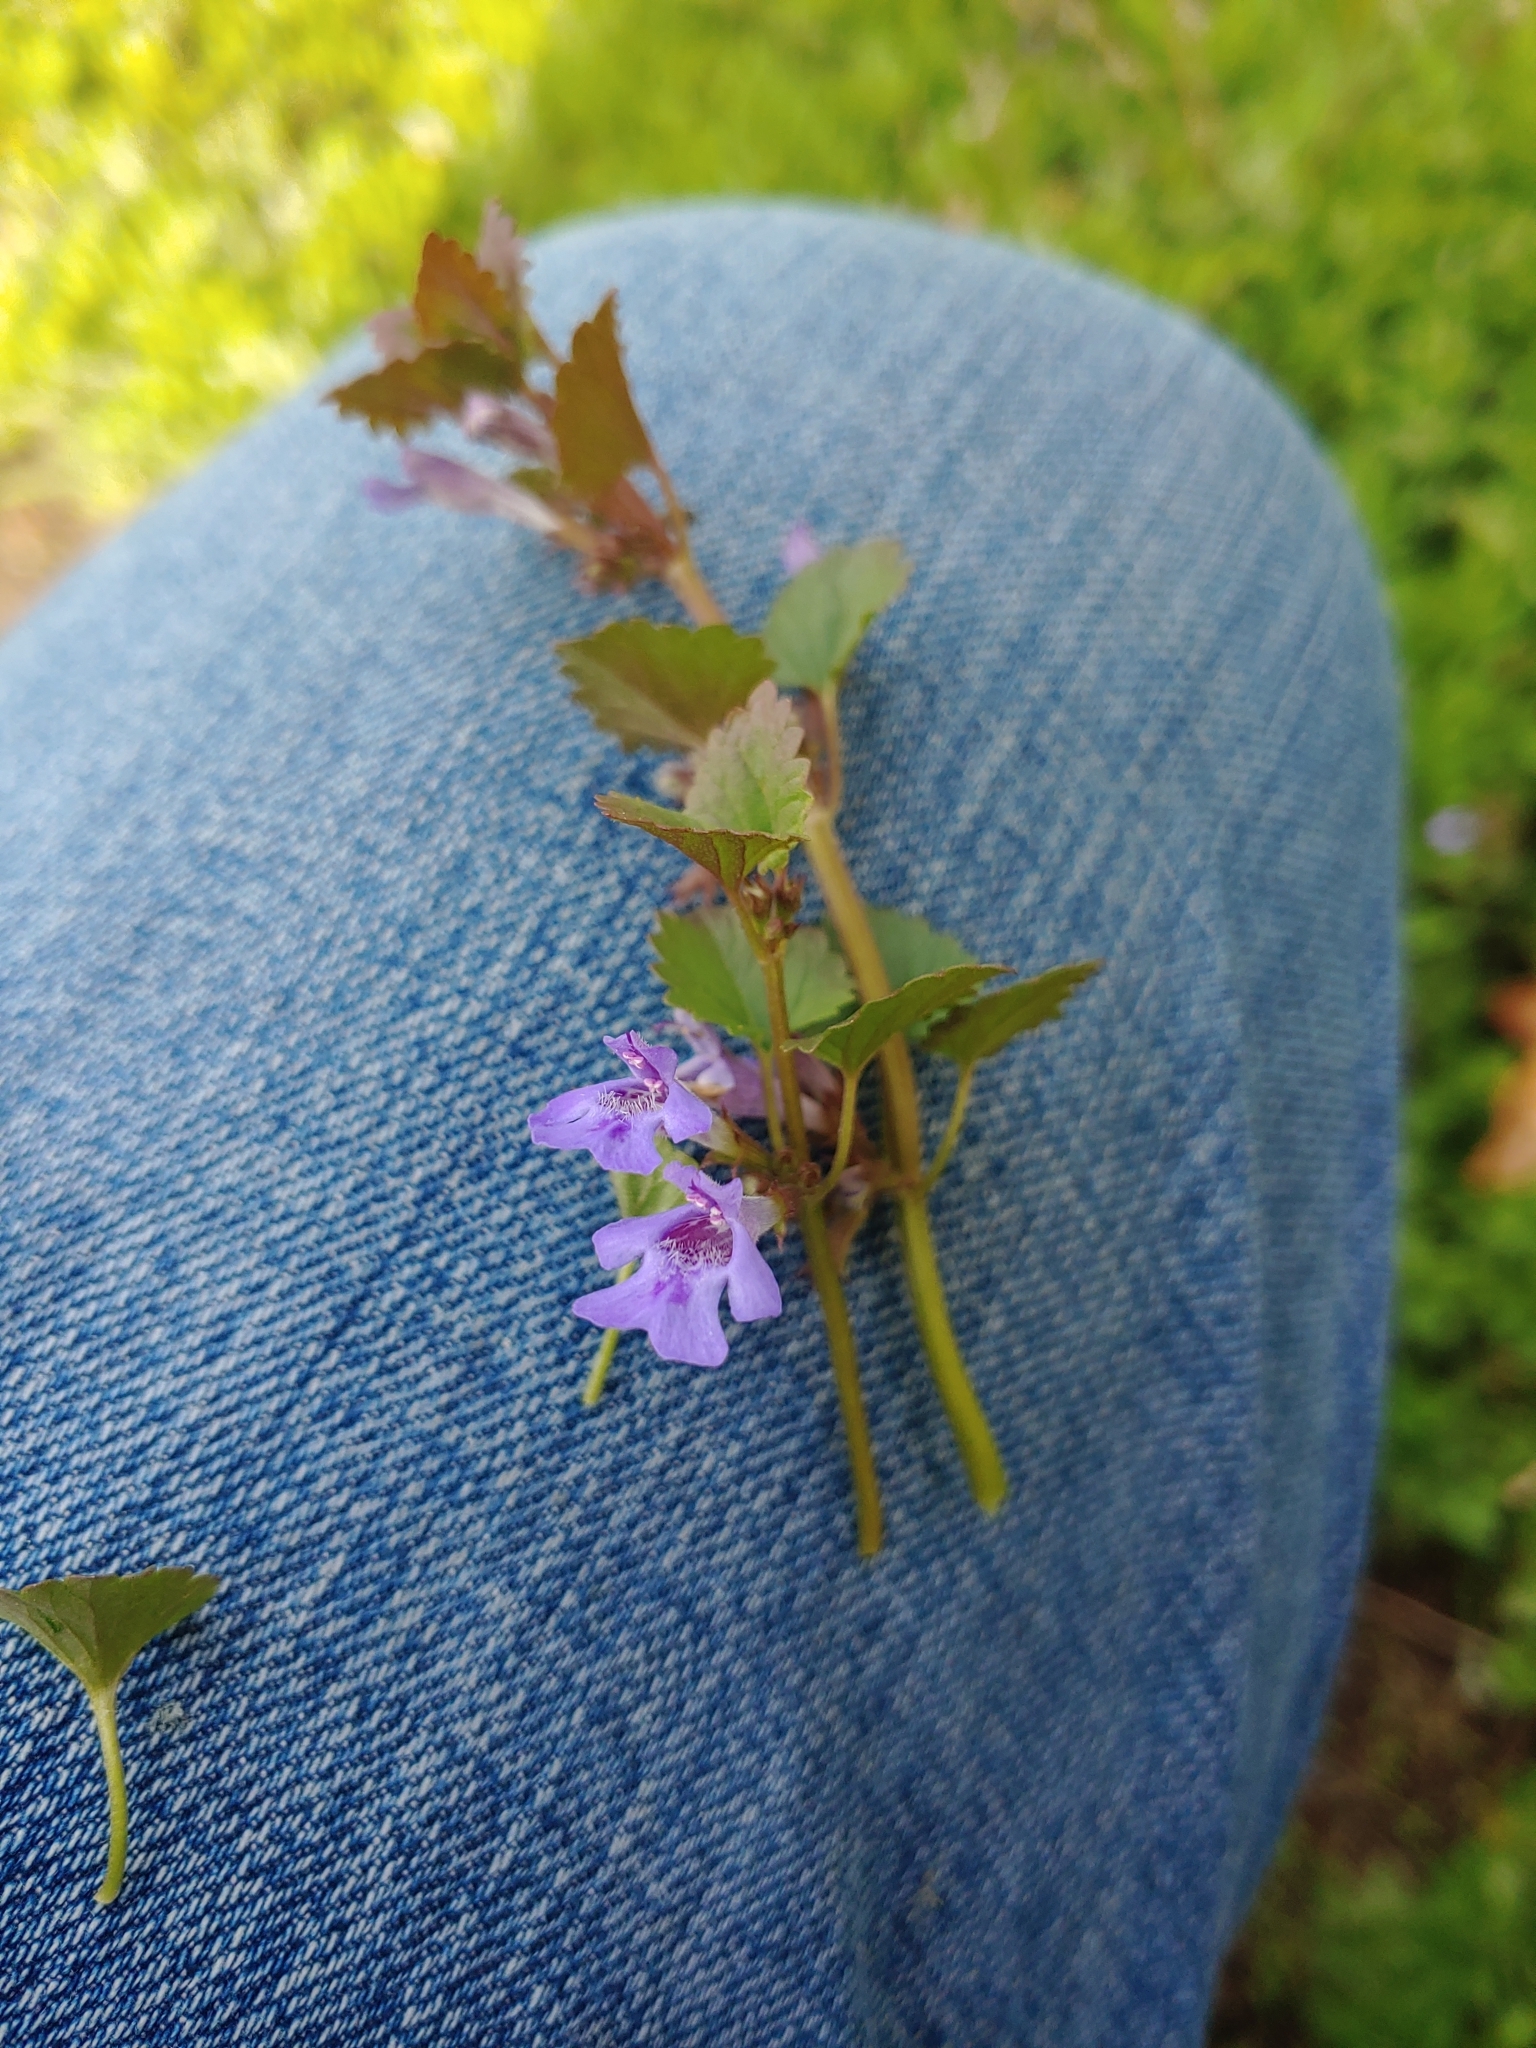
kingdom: Plantae
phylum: Tracheophyta
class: Magnoliopsida
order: Lamiales
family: Lamiaceae
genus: Glechoma
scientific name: Glechoma hederacea
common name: Ground ivy
